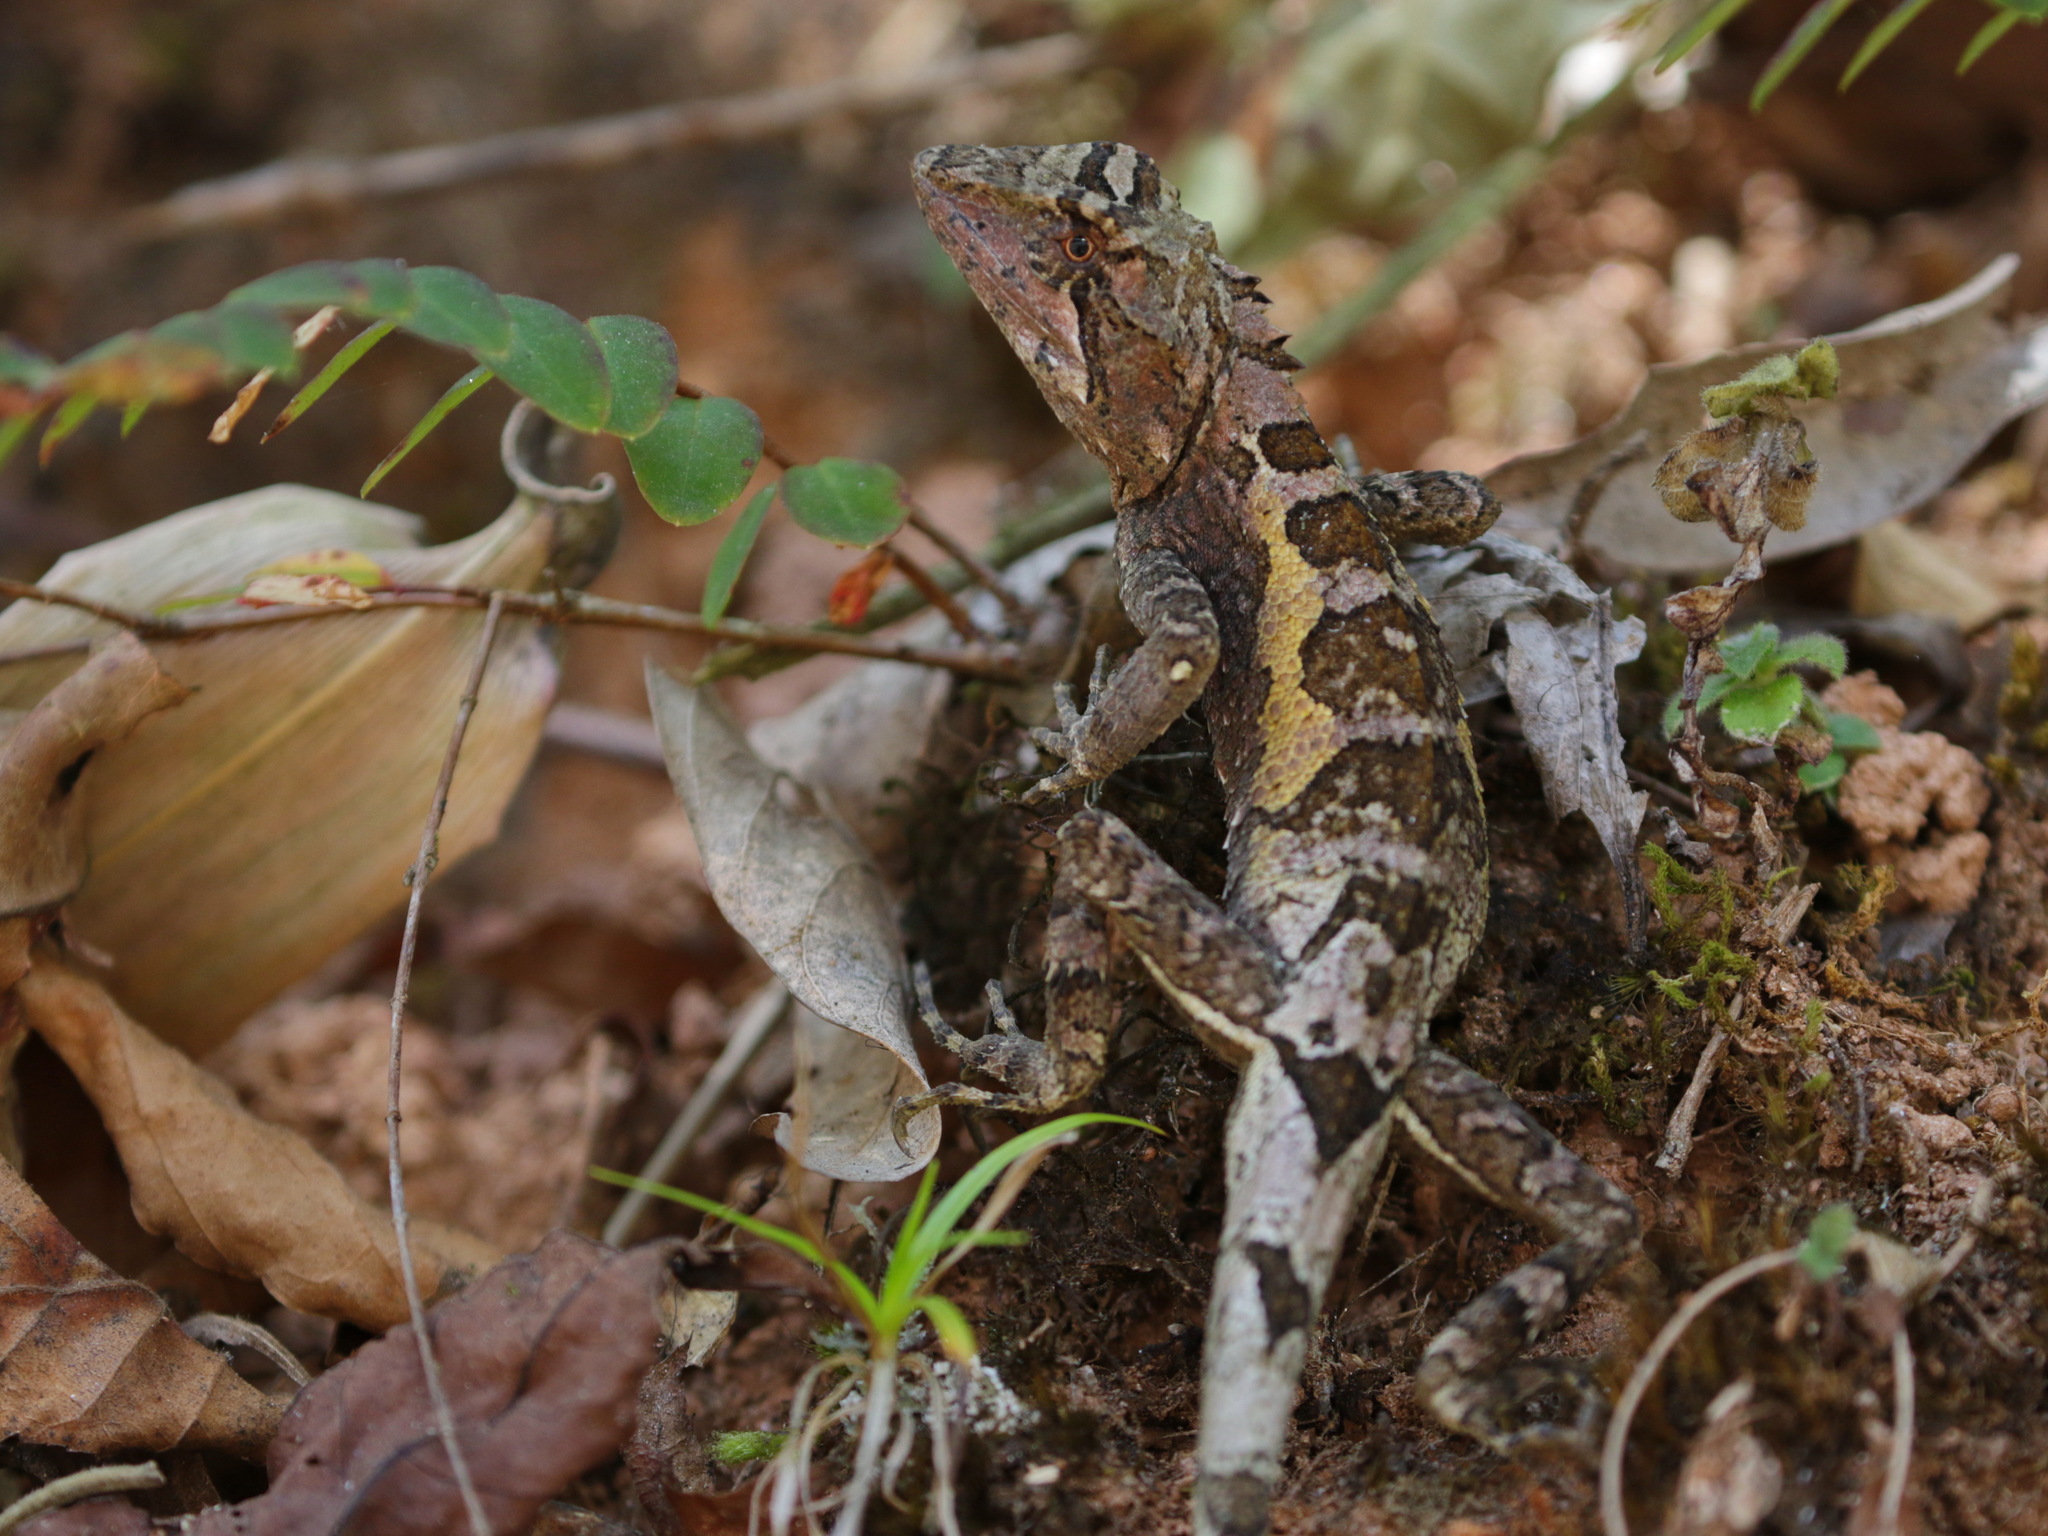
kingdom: Animalia
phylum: Chordata
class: Squamata
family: Agamidae
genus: Diploderma
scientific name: Diploderma menghaiense
